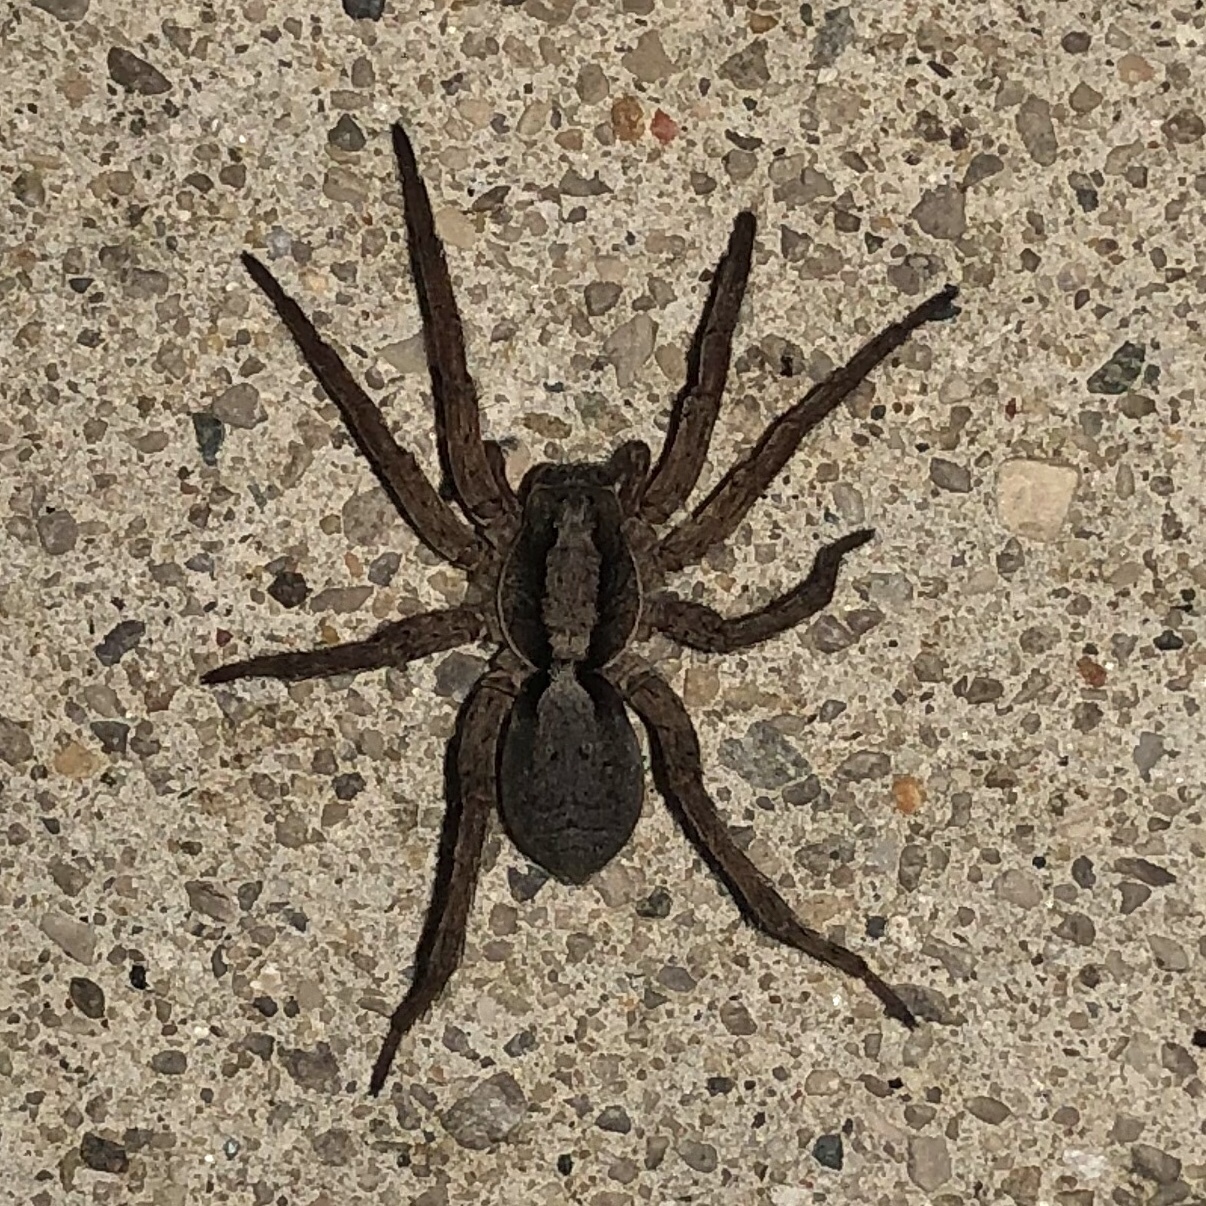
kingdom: Animalia
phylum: Arthropoda
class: Arachnida
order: Araneae
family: Lycosidae
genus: Hogna
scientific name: Hogna frondicola
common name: Forest wolf spider
